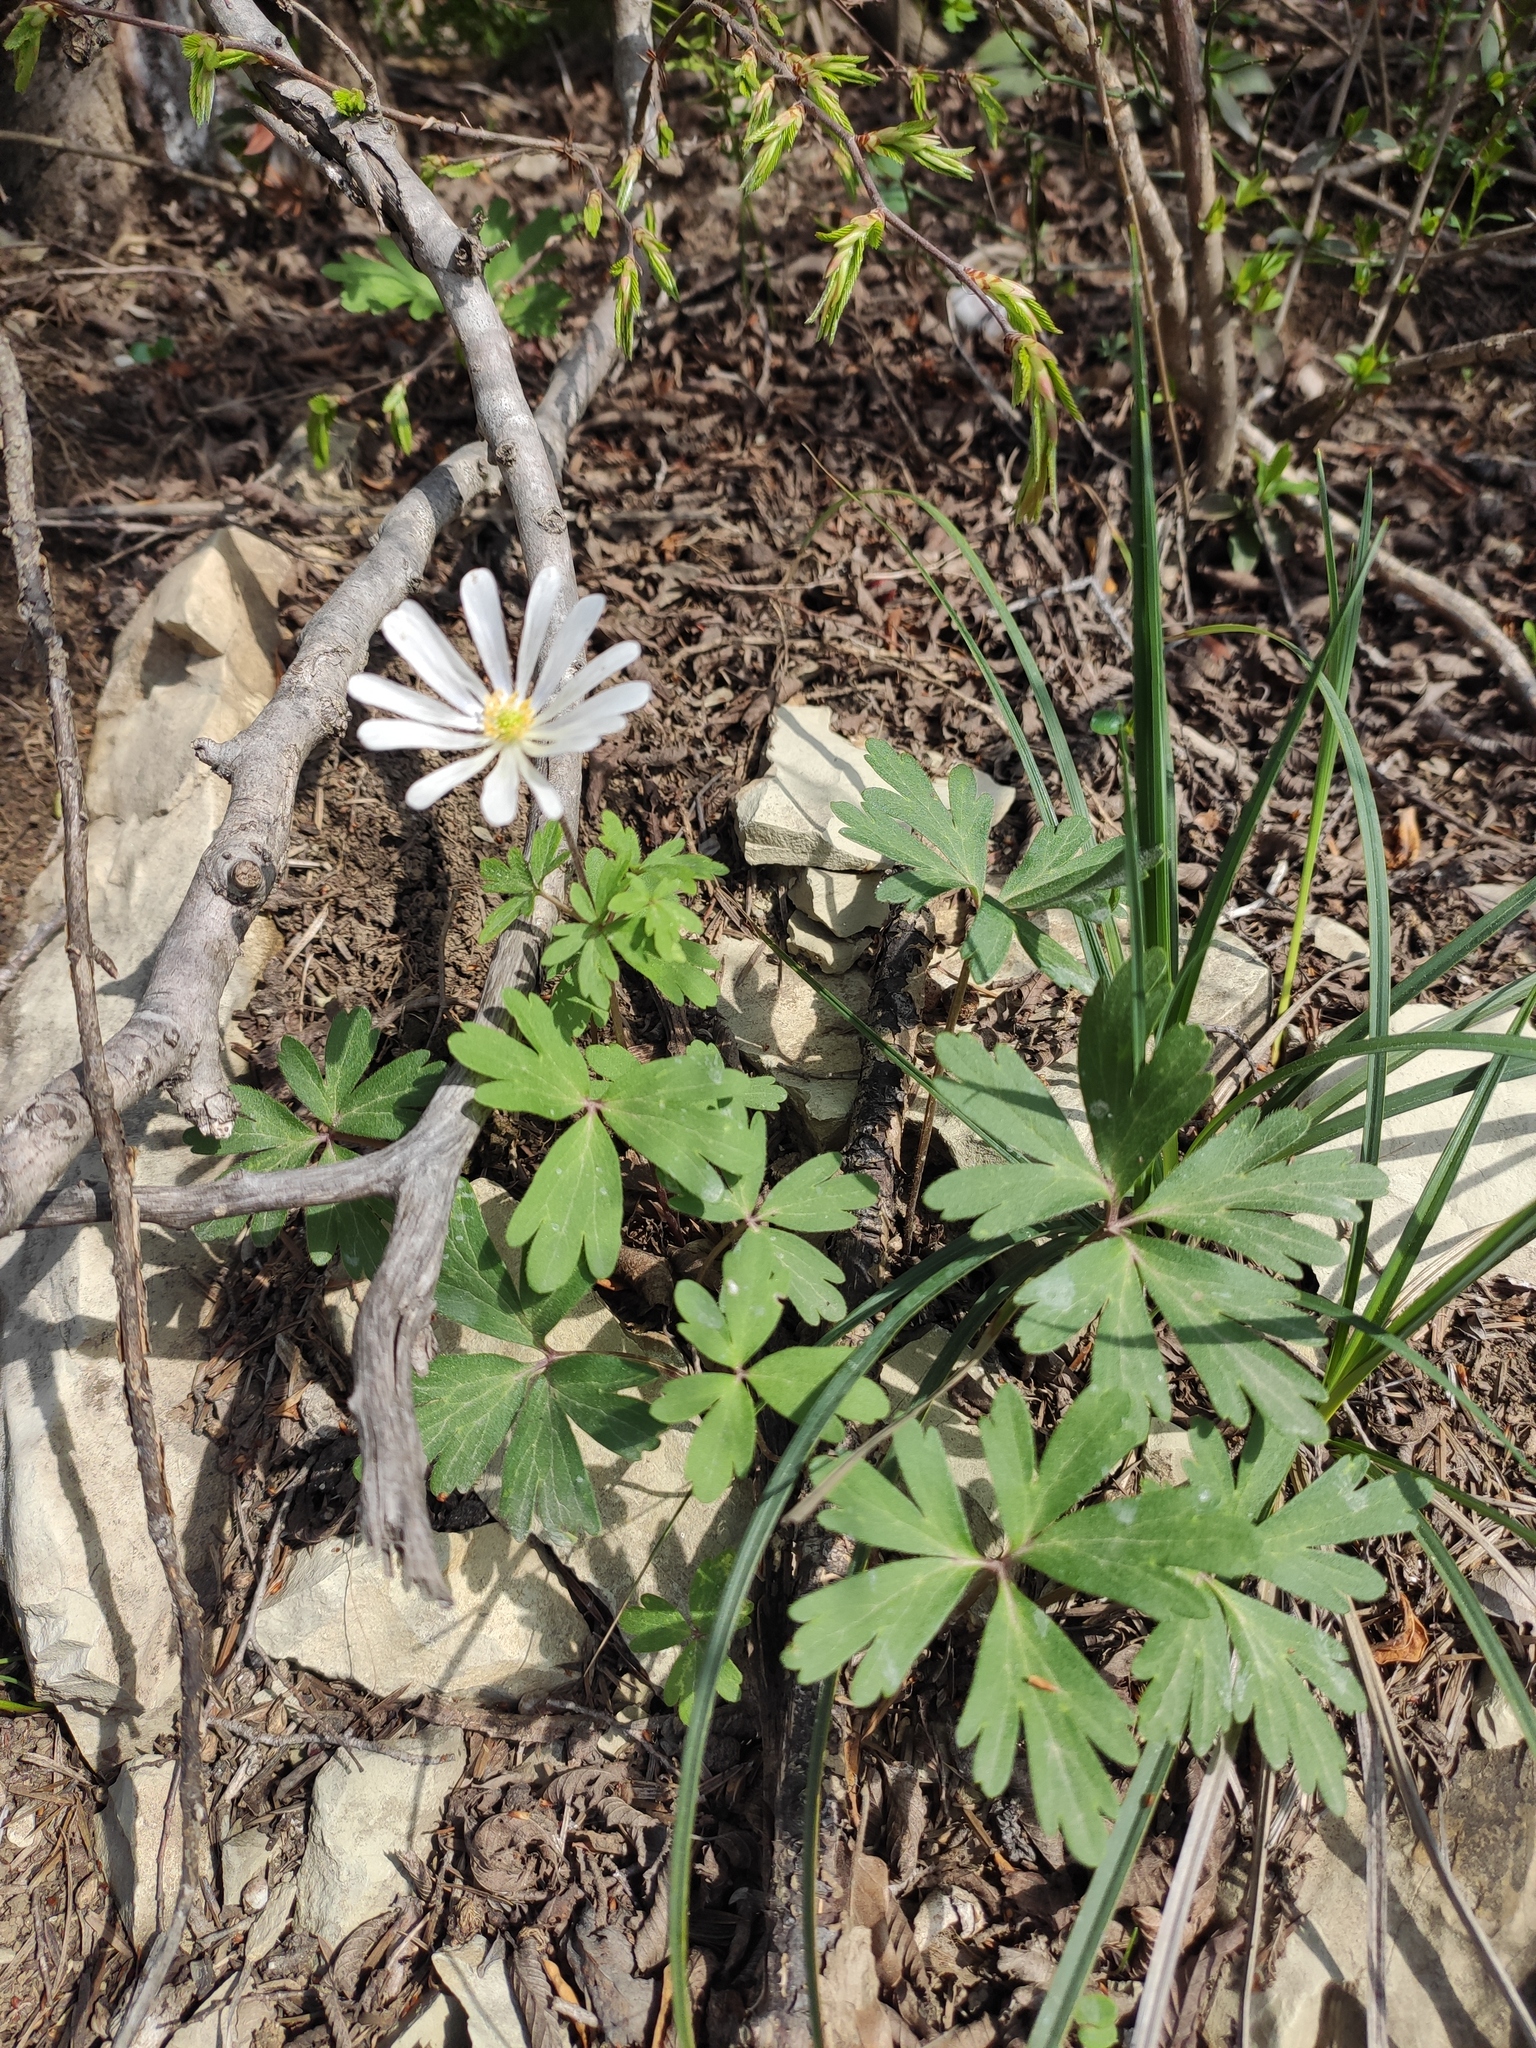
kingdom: Plantae
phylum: Tracheophyta
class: Magnoliopsida
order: Ranunculales
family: Ranunculaceae
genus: Anemone
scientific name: Anemone blanda
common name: Balkan anemone
